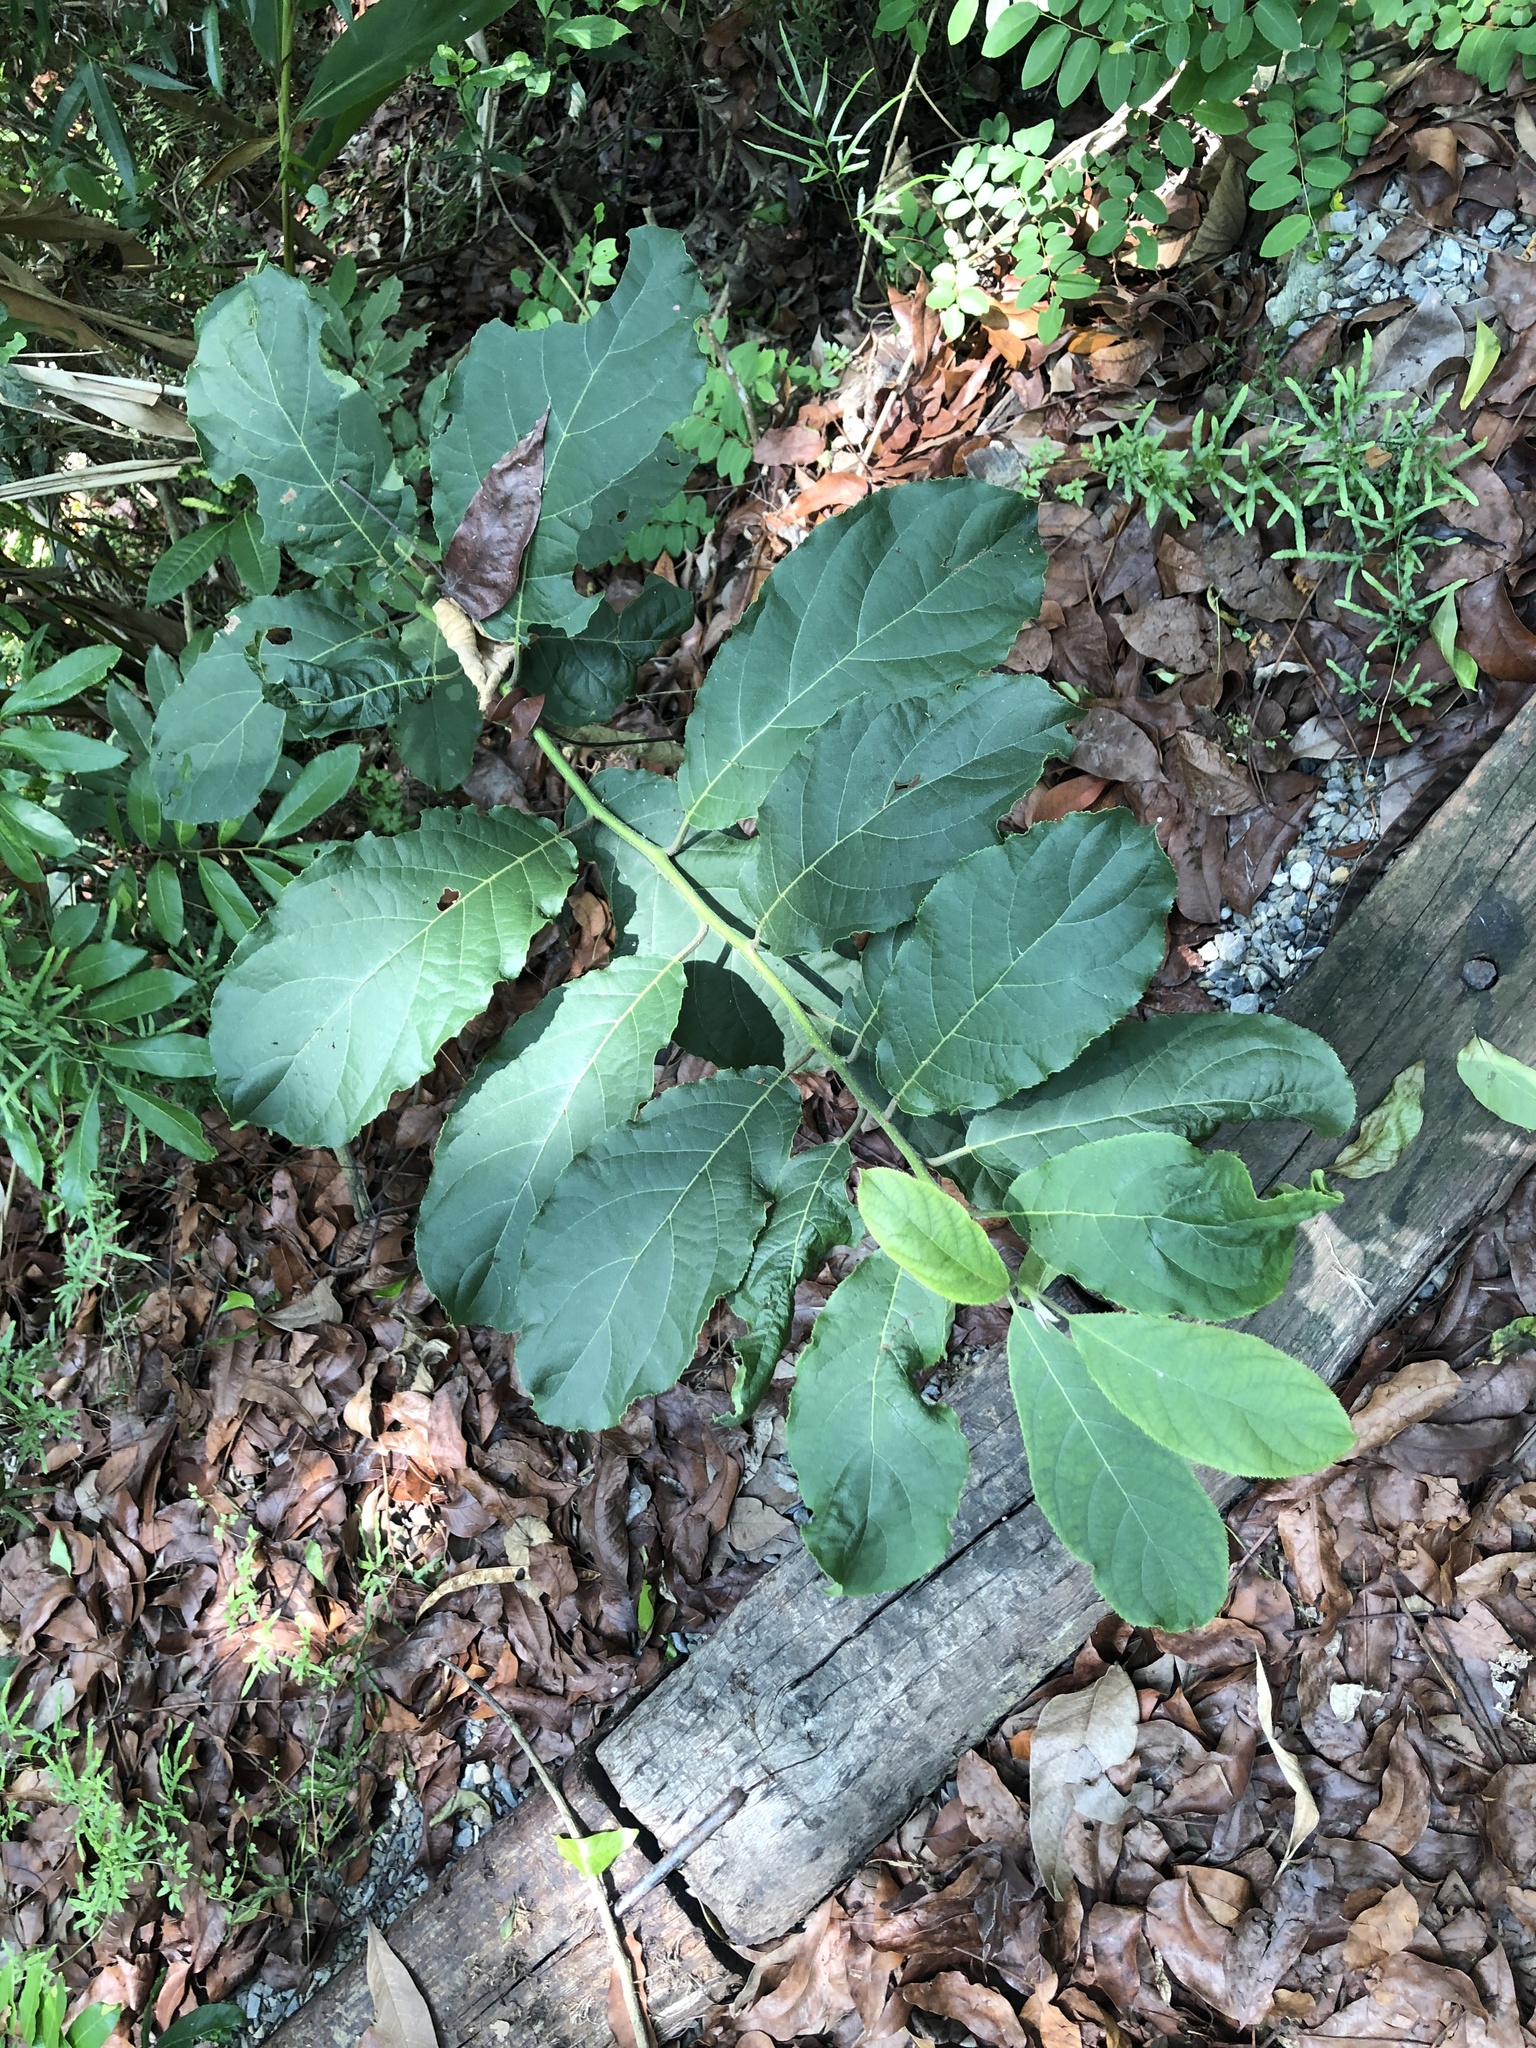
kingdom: Plantae
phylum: Tracheophyta
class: Magnoliopsida
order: Boraginales
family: Ehretiaceae
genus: Ehretia
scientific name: Ehretia acuminata
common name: Kodo wood
